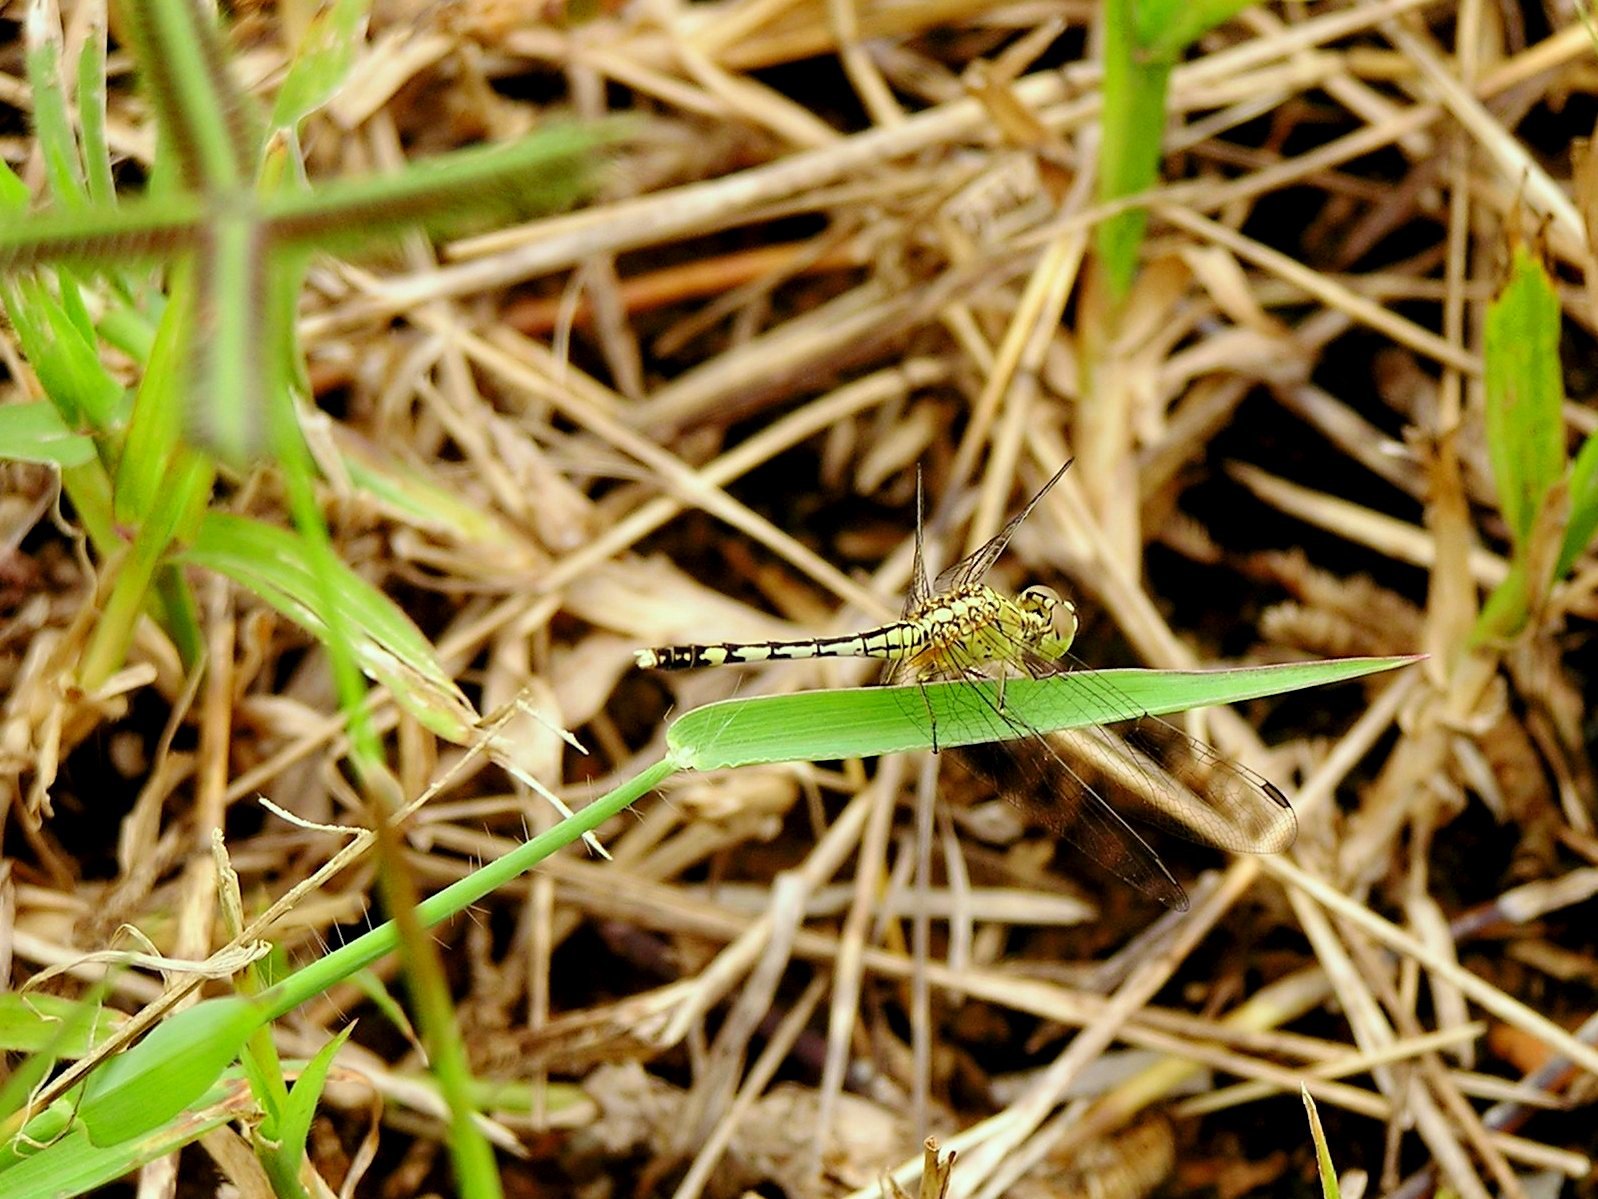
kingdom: Animalia
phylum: Arthropoda
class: Insecta
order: Odonata
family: Libellulidae
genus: Diplacodes
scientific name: Diplacodes trivialis
